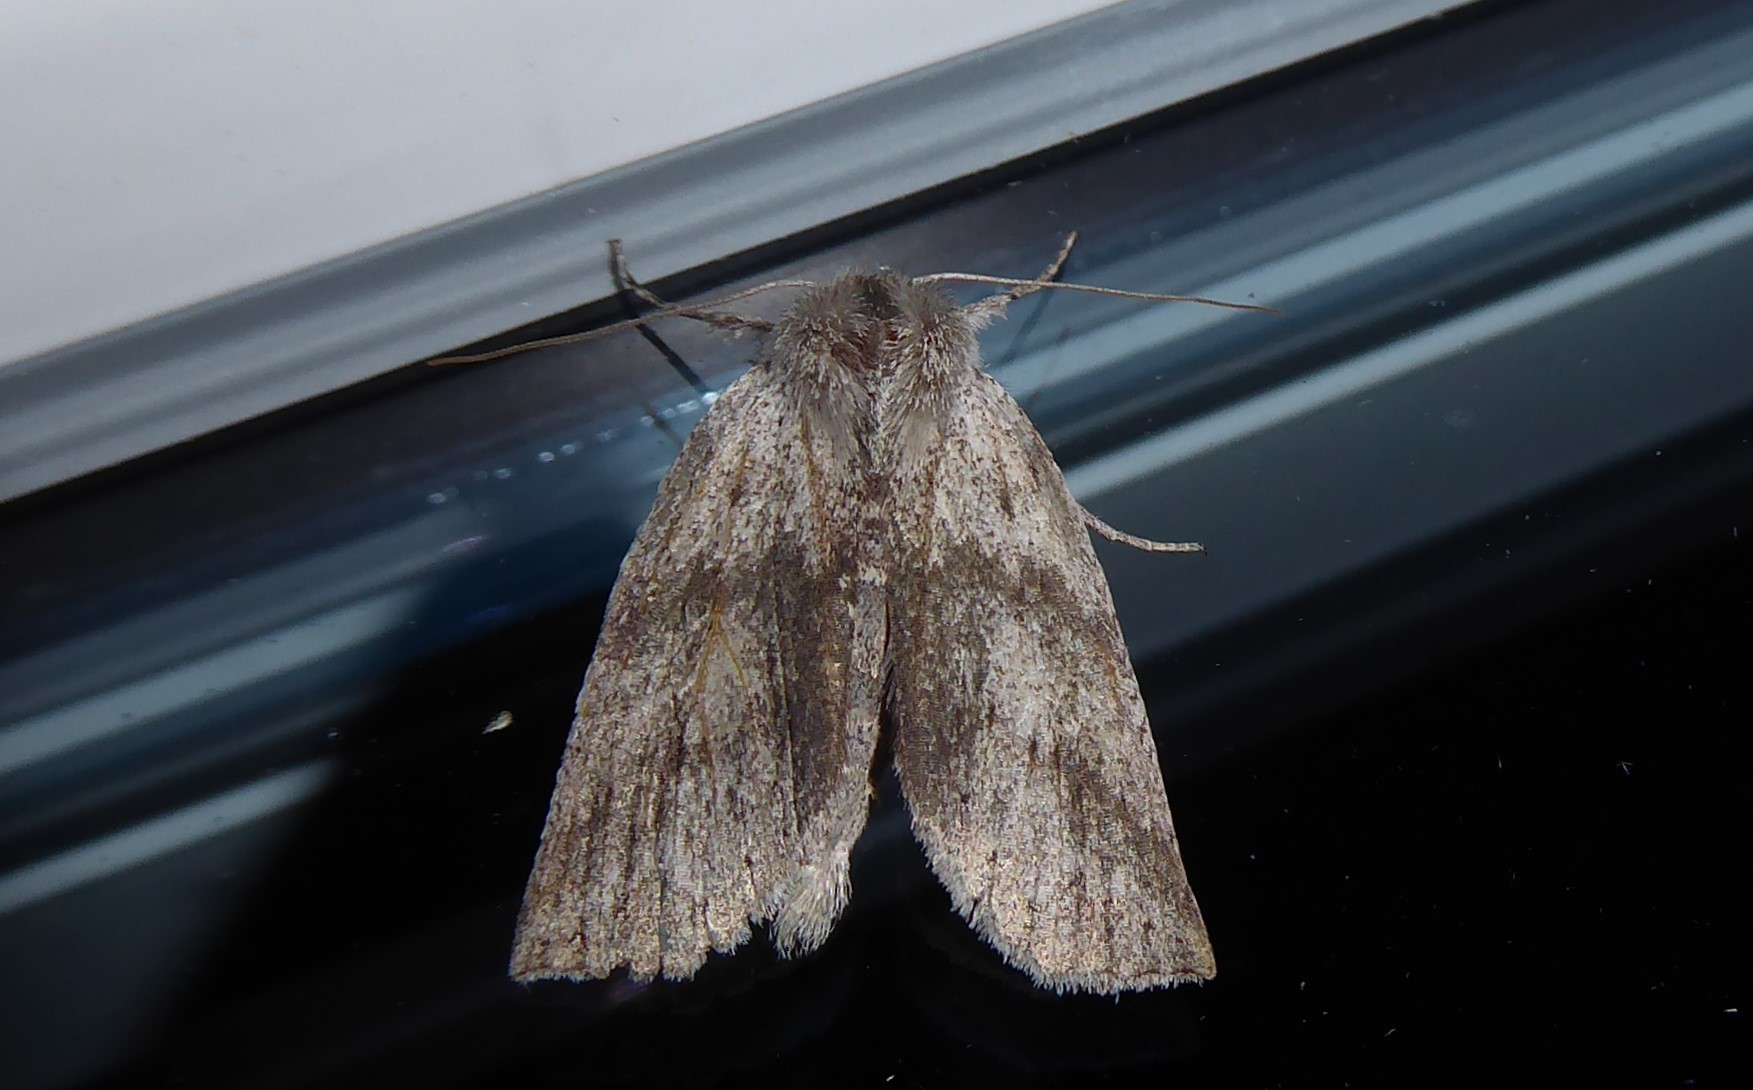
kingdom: Animalia
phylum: Arthropoda
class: Insecta
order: Lepidoptera
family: Geometridae
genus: Declana
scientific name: Declana leptomera
